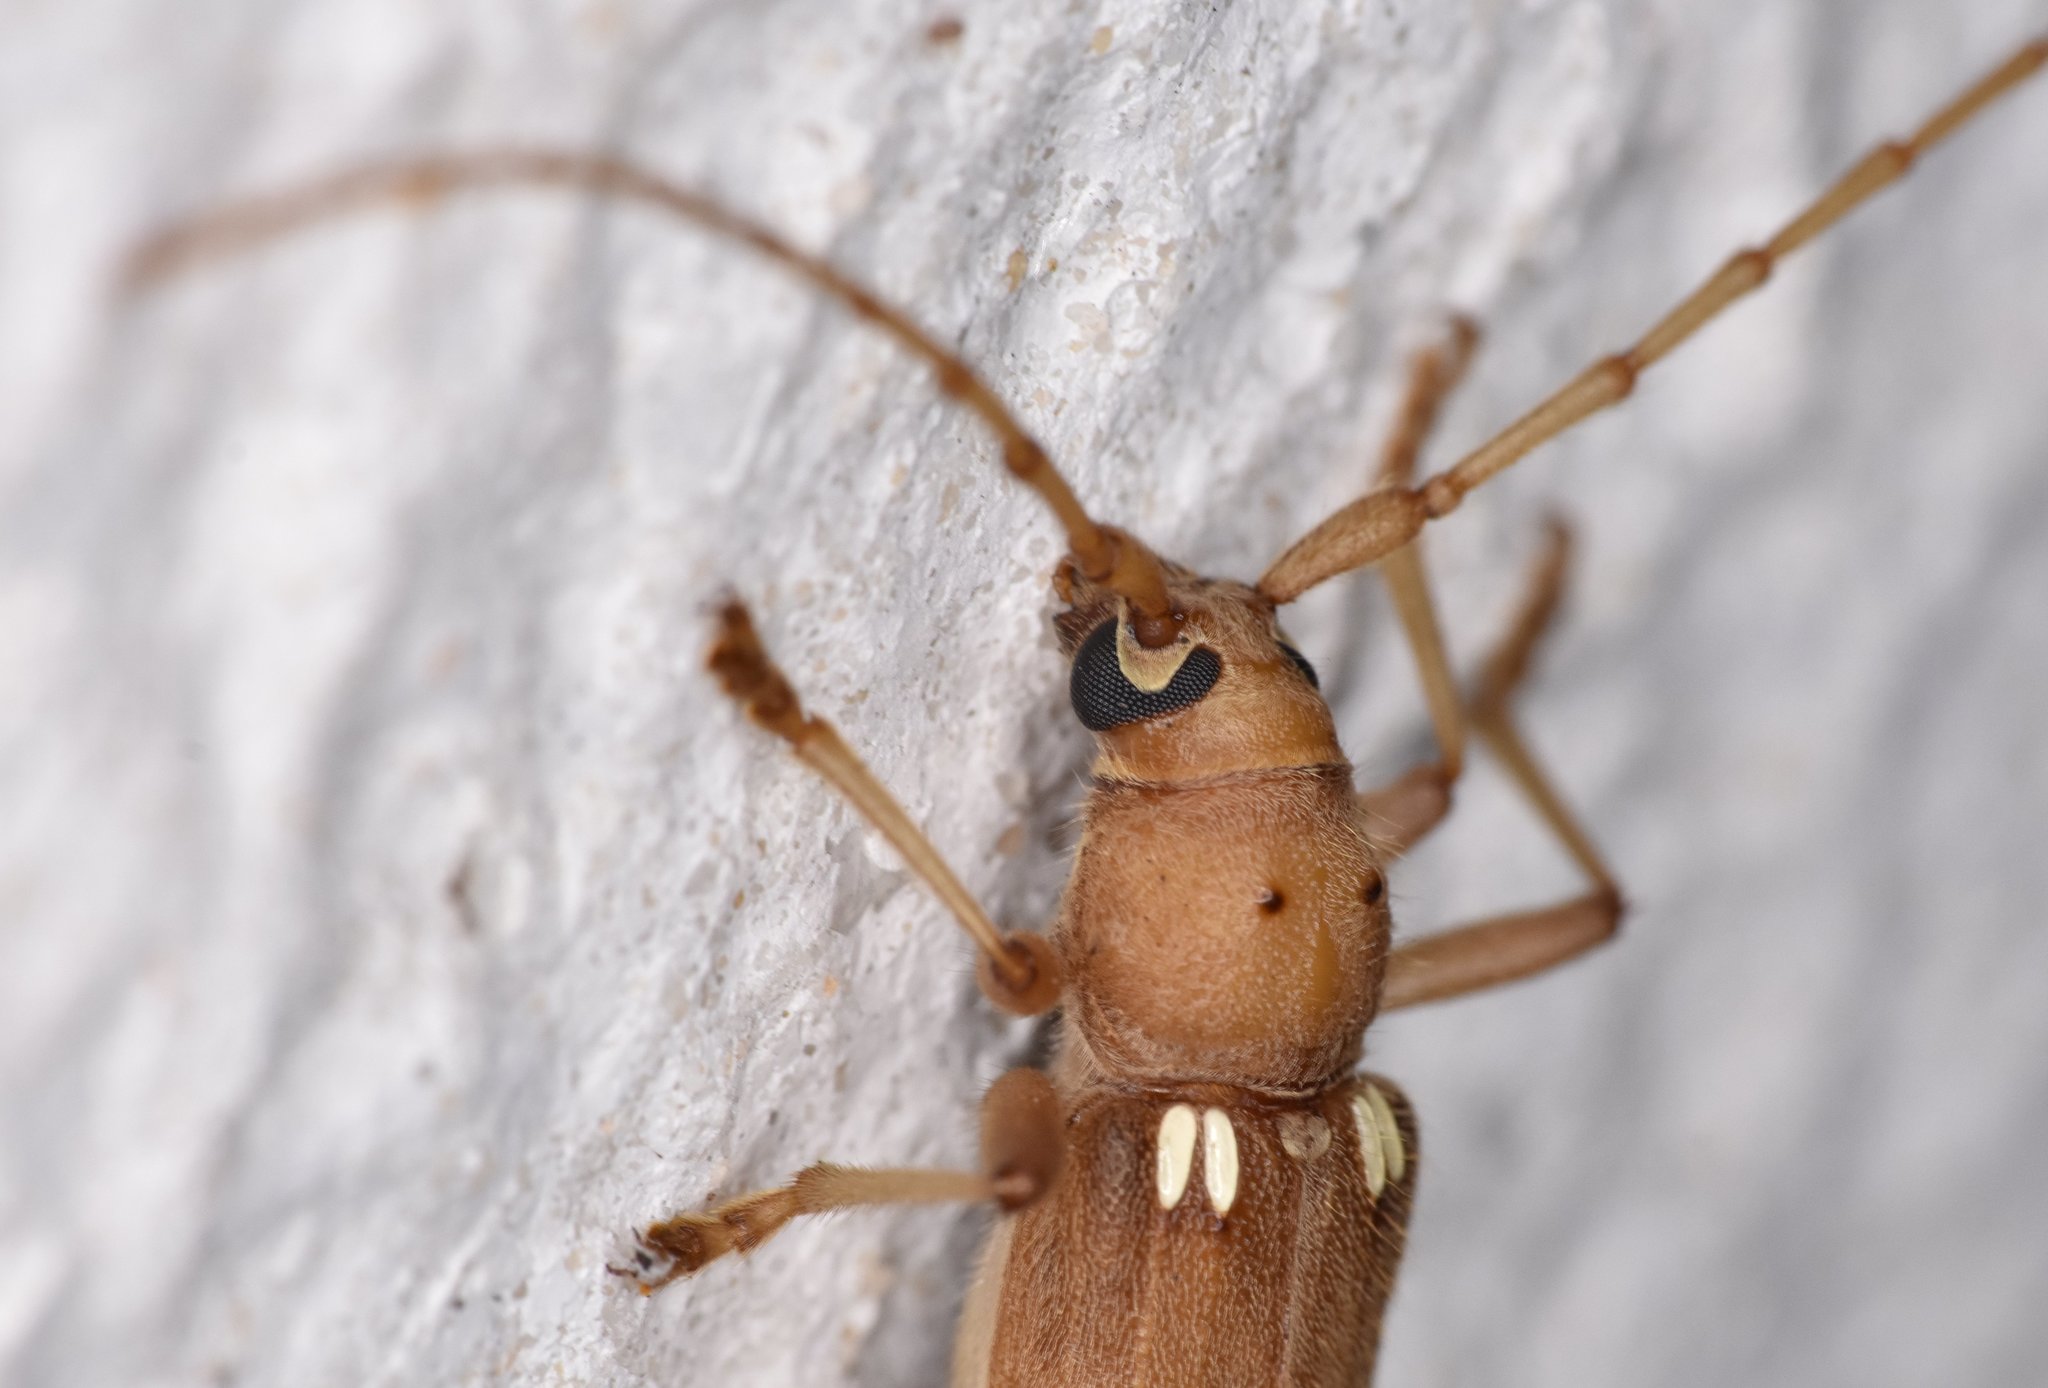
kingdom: Animalia
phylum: Arthropoda
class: Insecta
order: Coleoptera
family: Cerambycidae
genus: Eburia
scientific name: Eburia quadrigeminata
